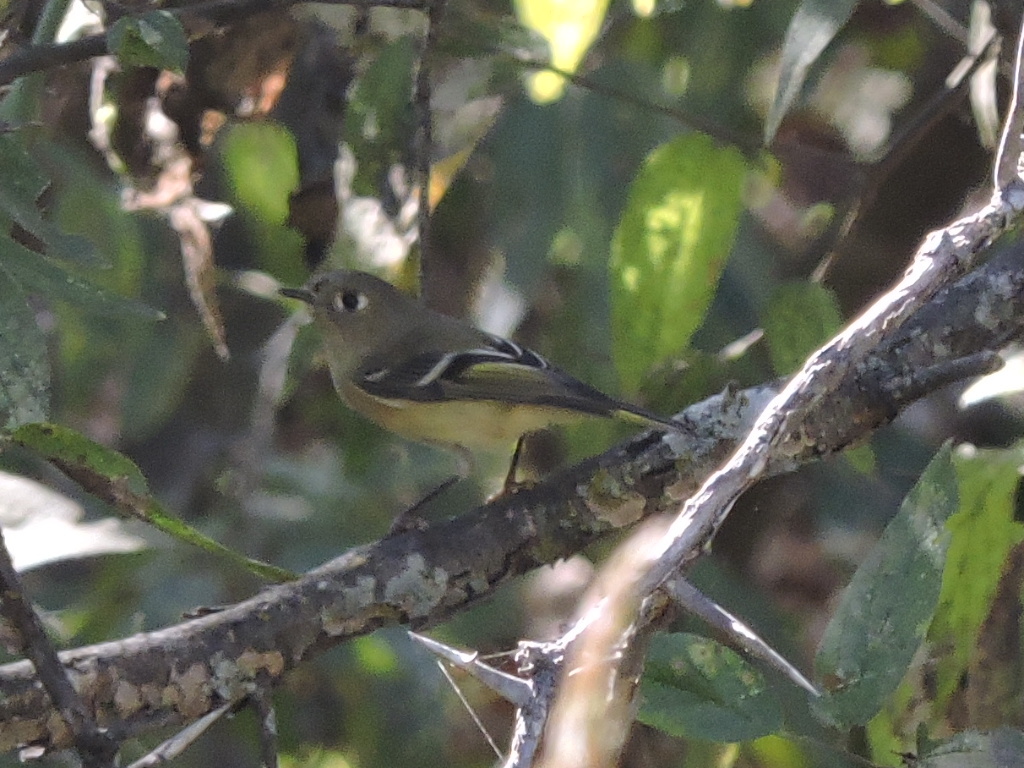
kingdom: Animalia
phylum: Chordata
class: Aves
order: Passeriformes
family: Regulidae
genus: Regulus
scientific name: Regulus calendula
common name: Ruby-crowned kinglet
